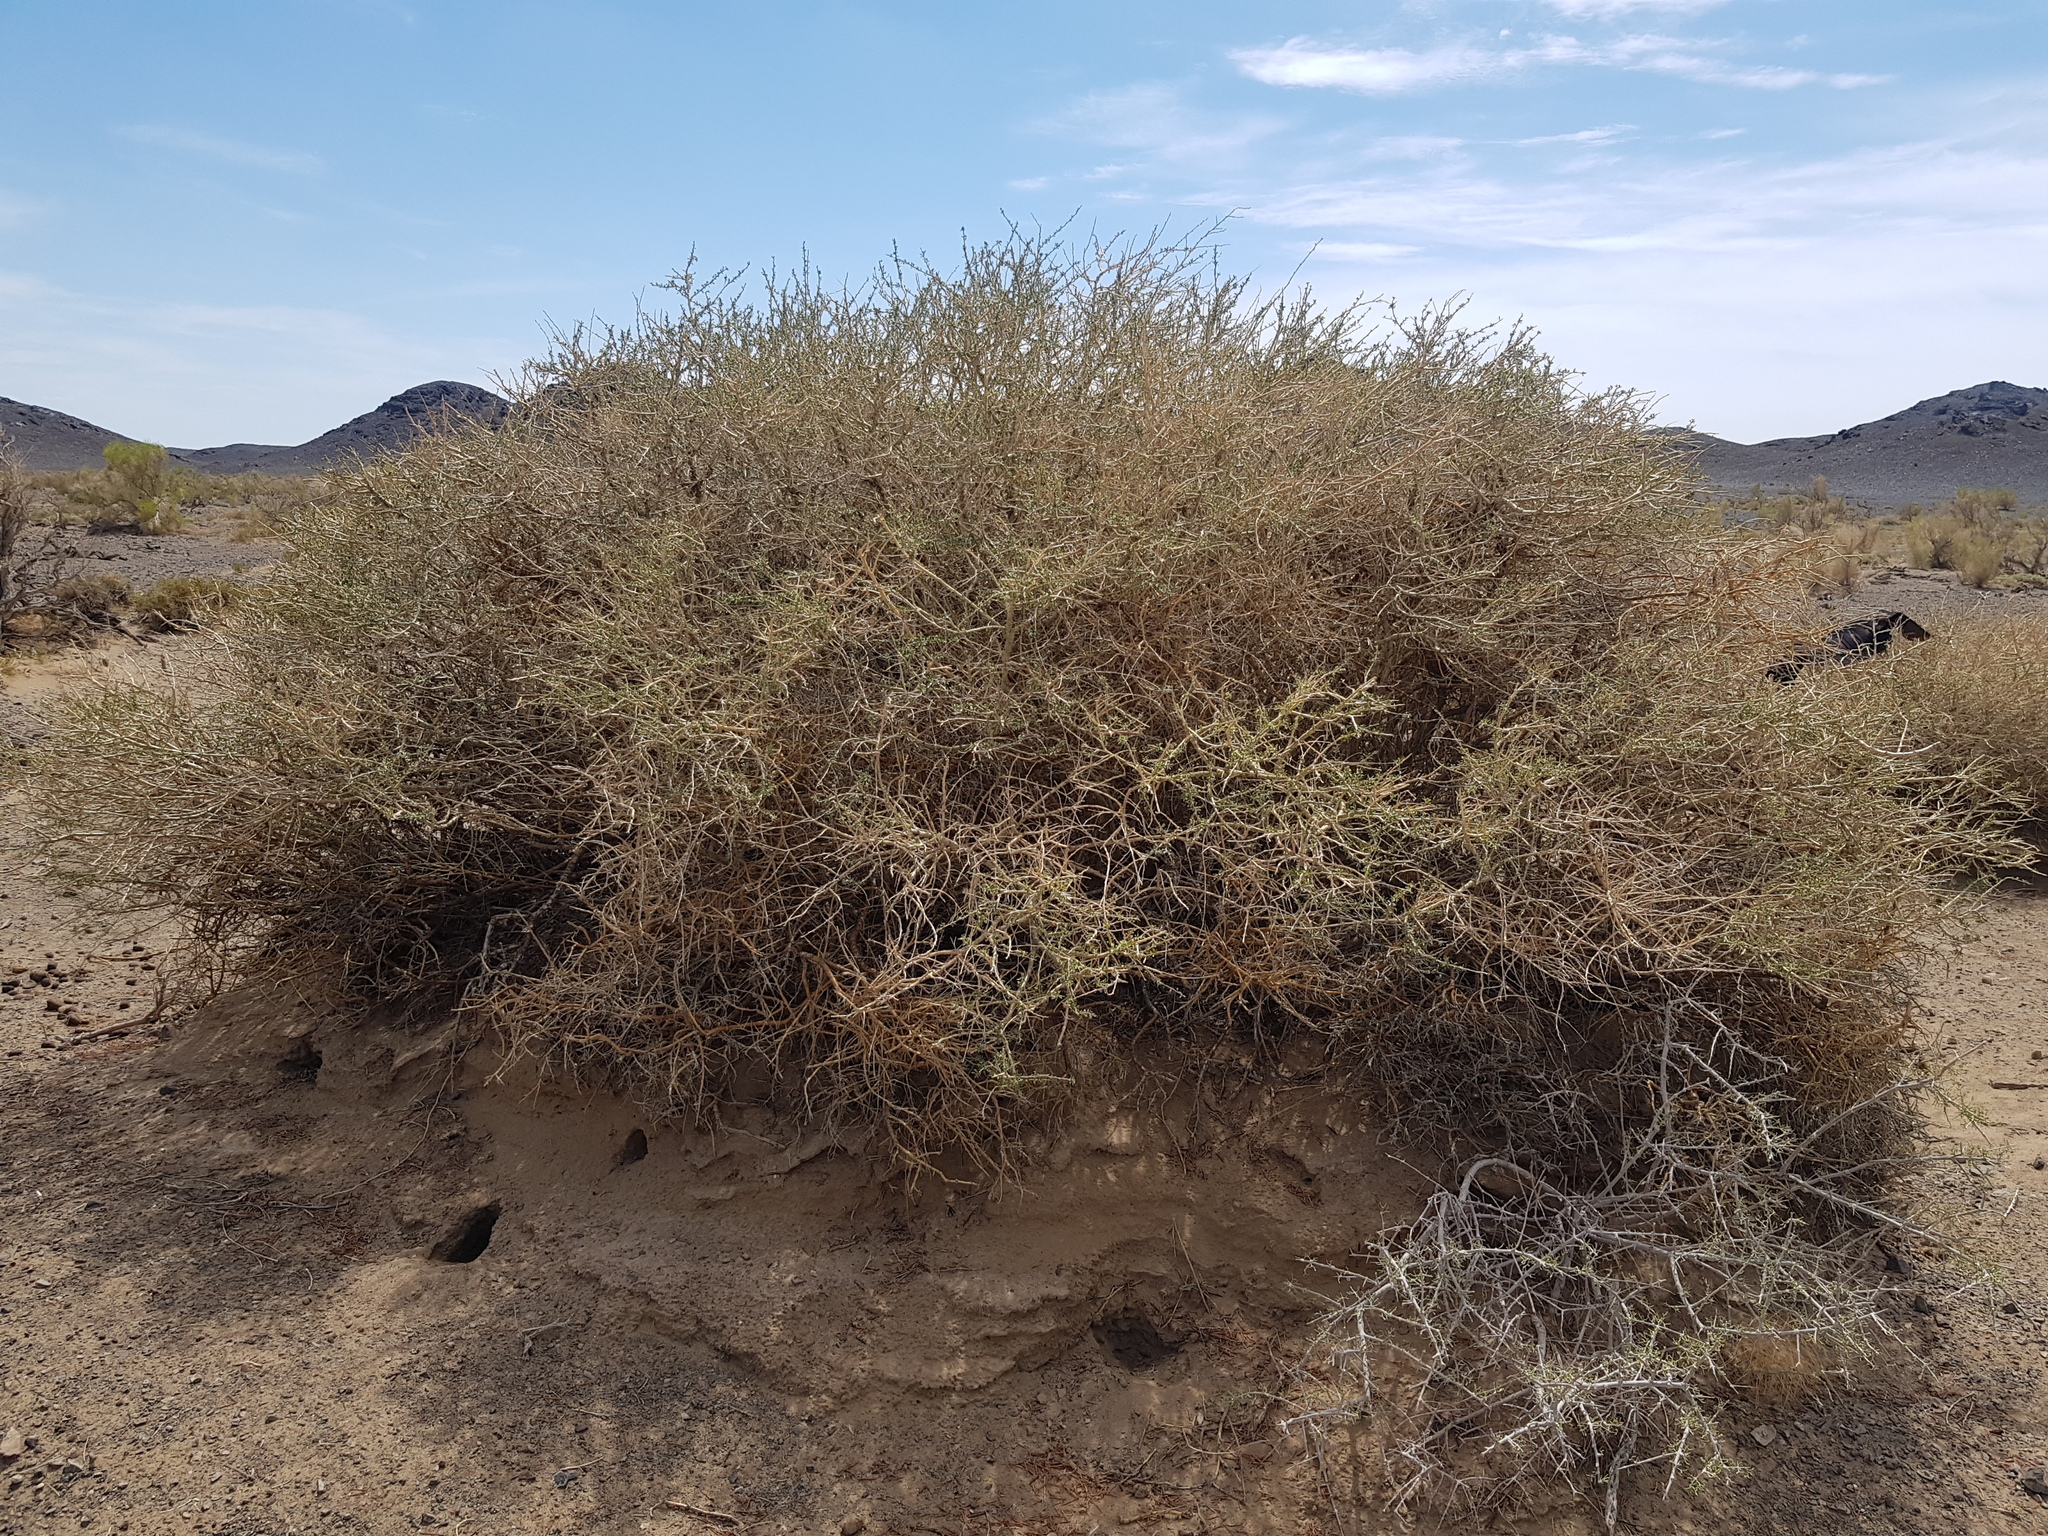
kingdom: Plantae
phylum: Tracheophyta
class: Magnoliopsida
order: Caryophyllales
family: Polygonaceae
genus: Calligonum
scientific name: Calligonum litwinowii
